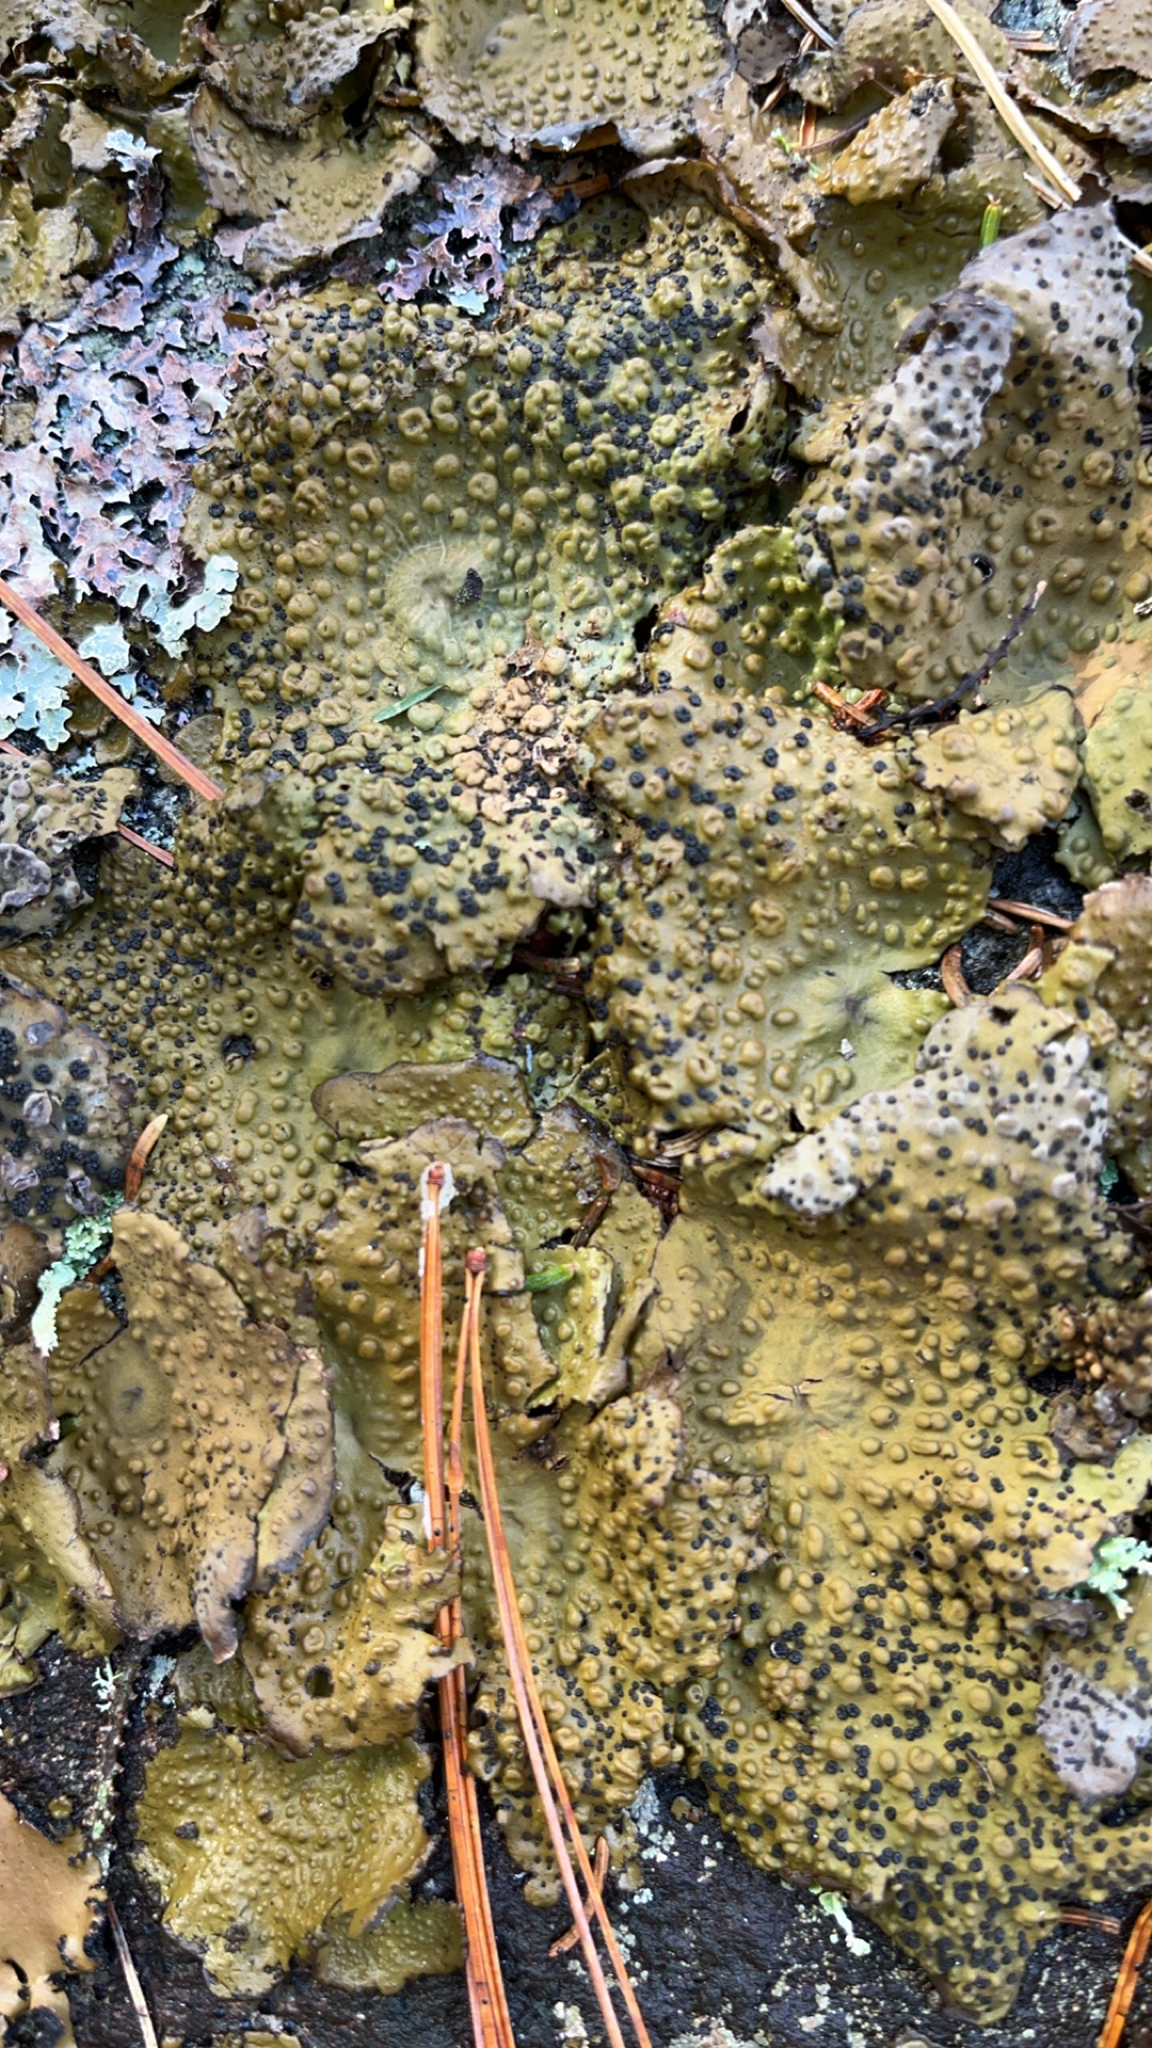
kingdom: Fungi
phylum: Ascomycota
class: Lecanoromycetes
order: Umbilicariales
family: Umbilicariaceae
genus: Lasallia
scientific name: Lasallia papulosa
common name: Common toadskin lichen
